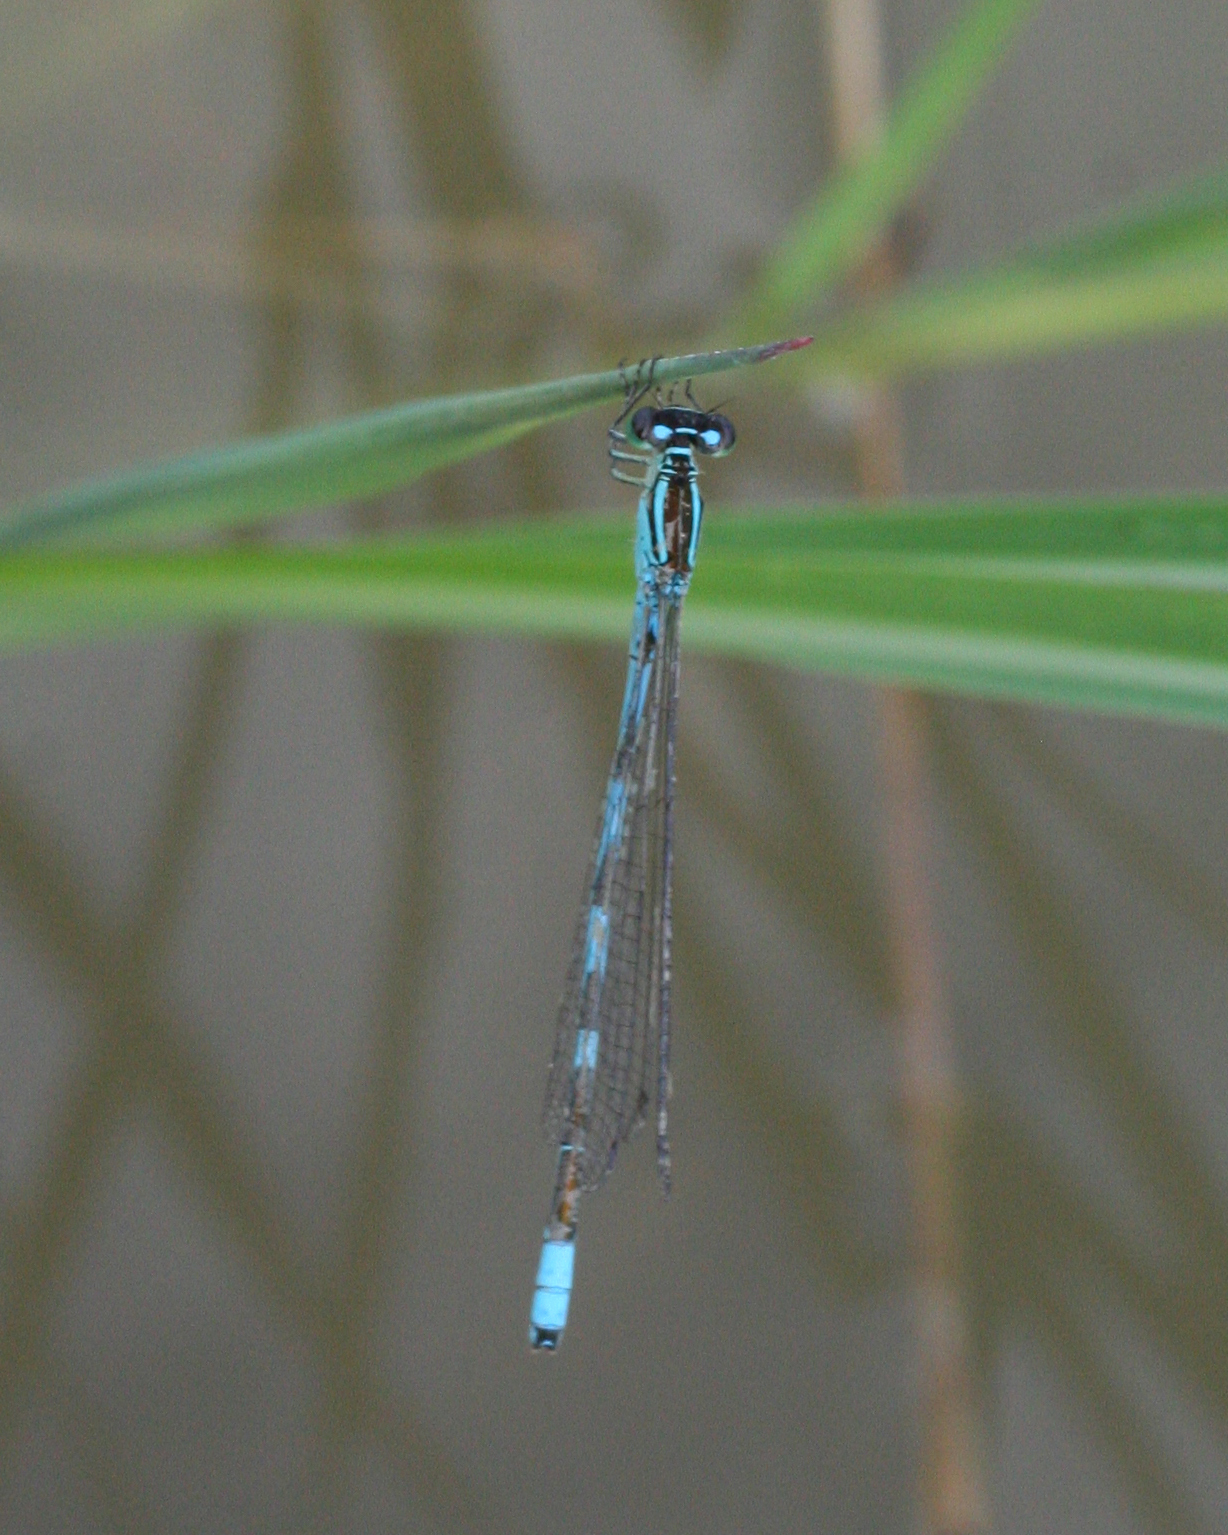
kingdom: Animalia
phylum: Arthropoda
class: Insecta
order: Odonata
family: Coenagrionidae
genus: Enallagma
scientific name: Enallagma cyathigerum
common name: Common blue damselfly
